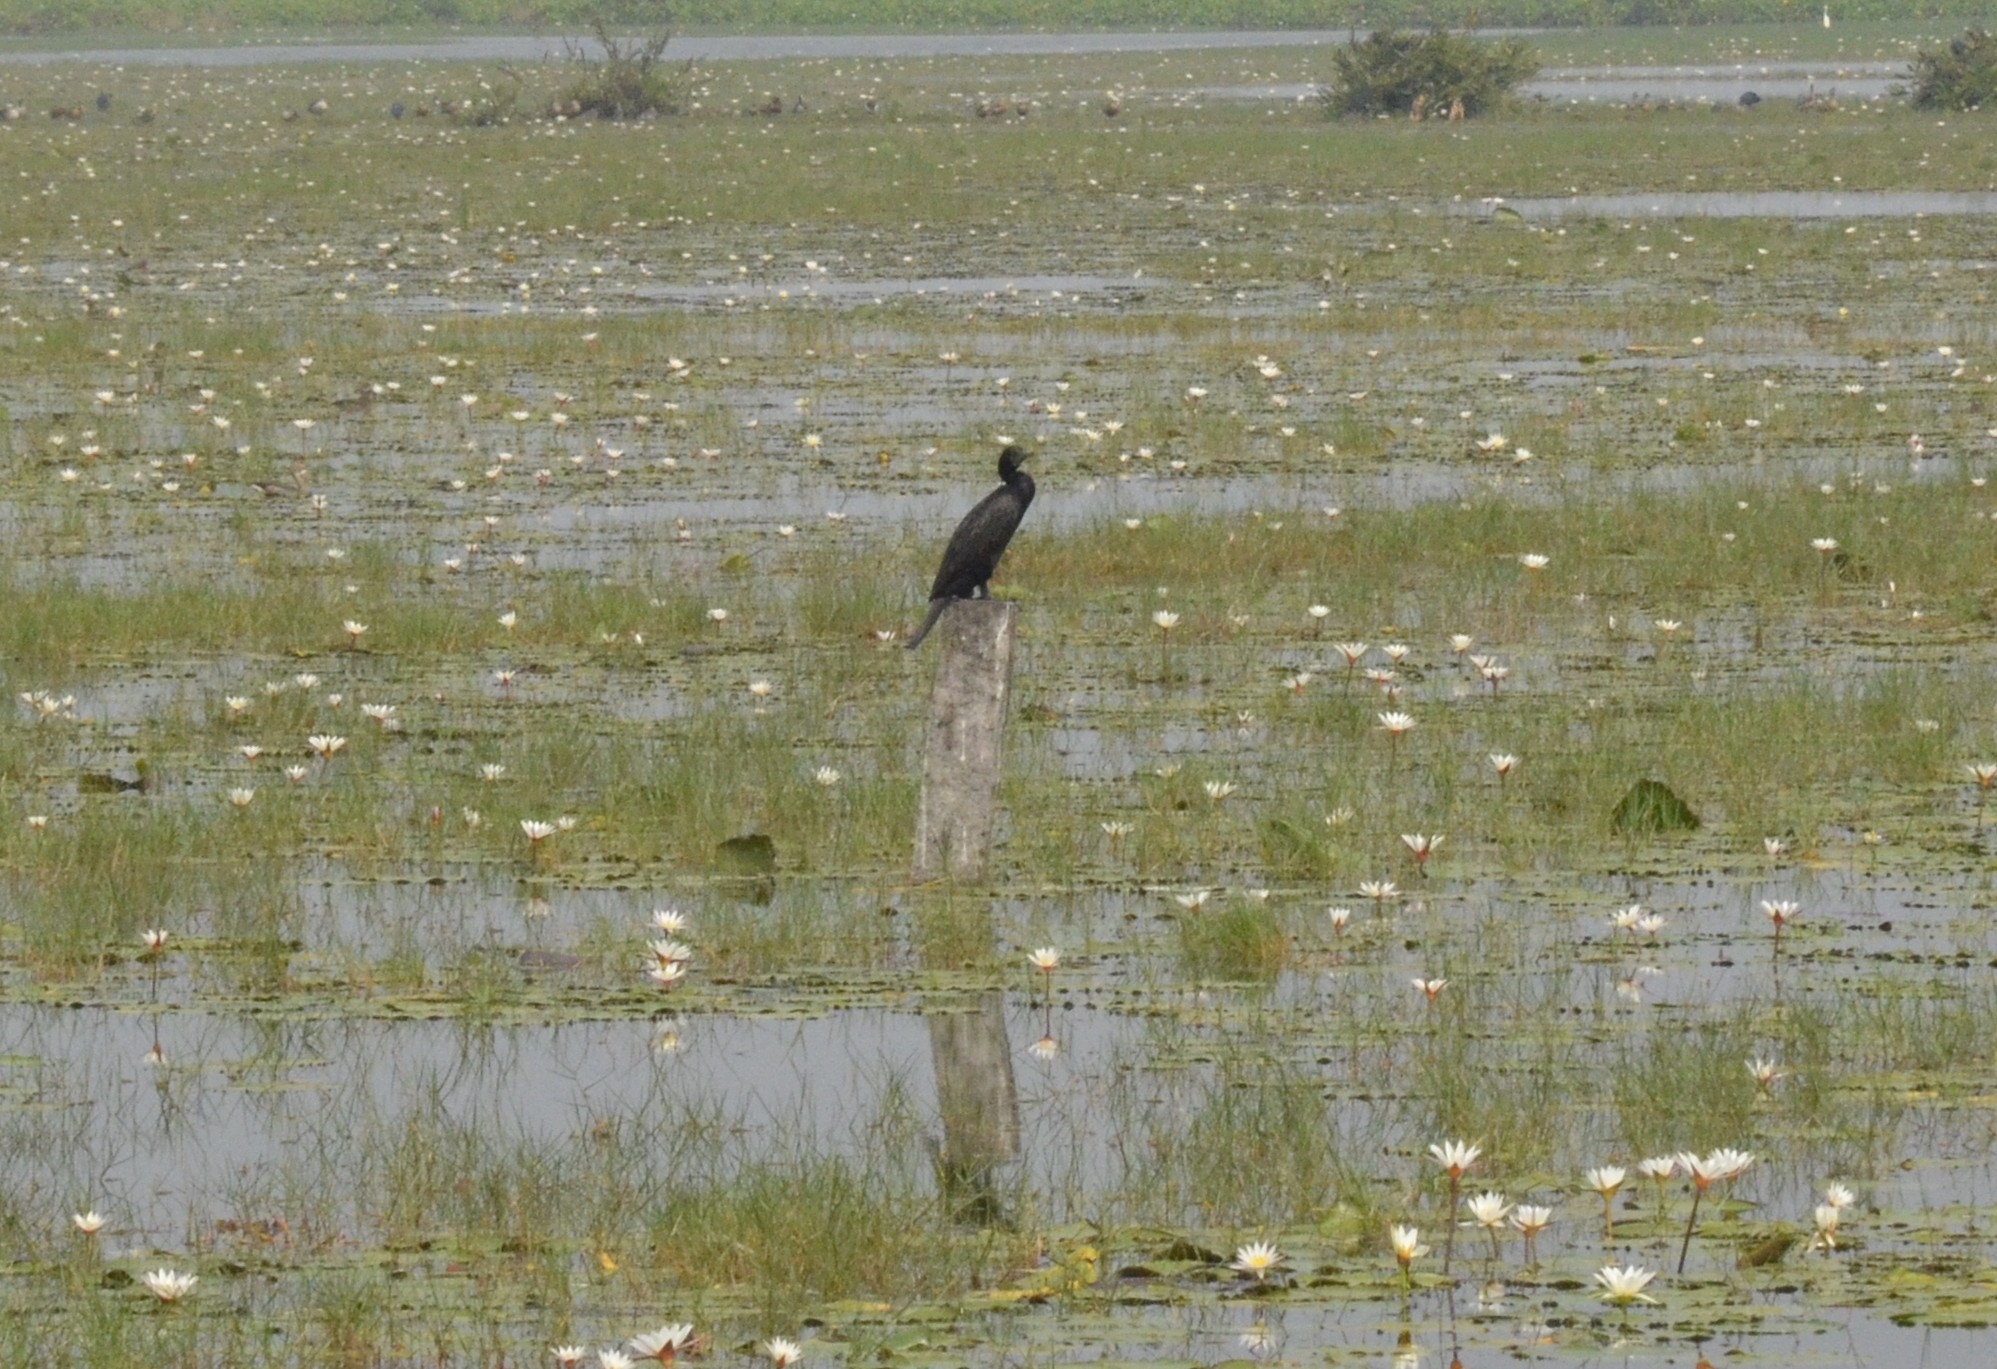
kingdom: Animalia
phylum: Chordata
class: Aves
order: Suliformes
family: Phalacrocoracidae
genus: Microcarbo
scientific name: Microcarbo niger
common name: Little cormorant
